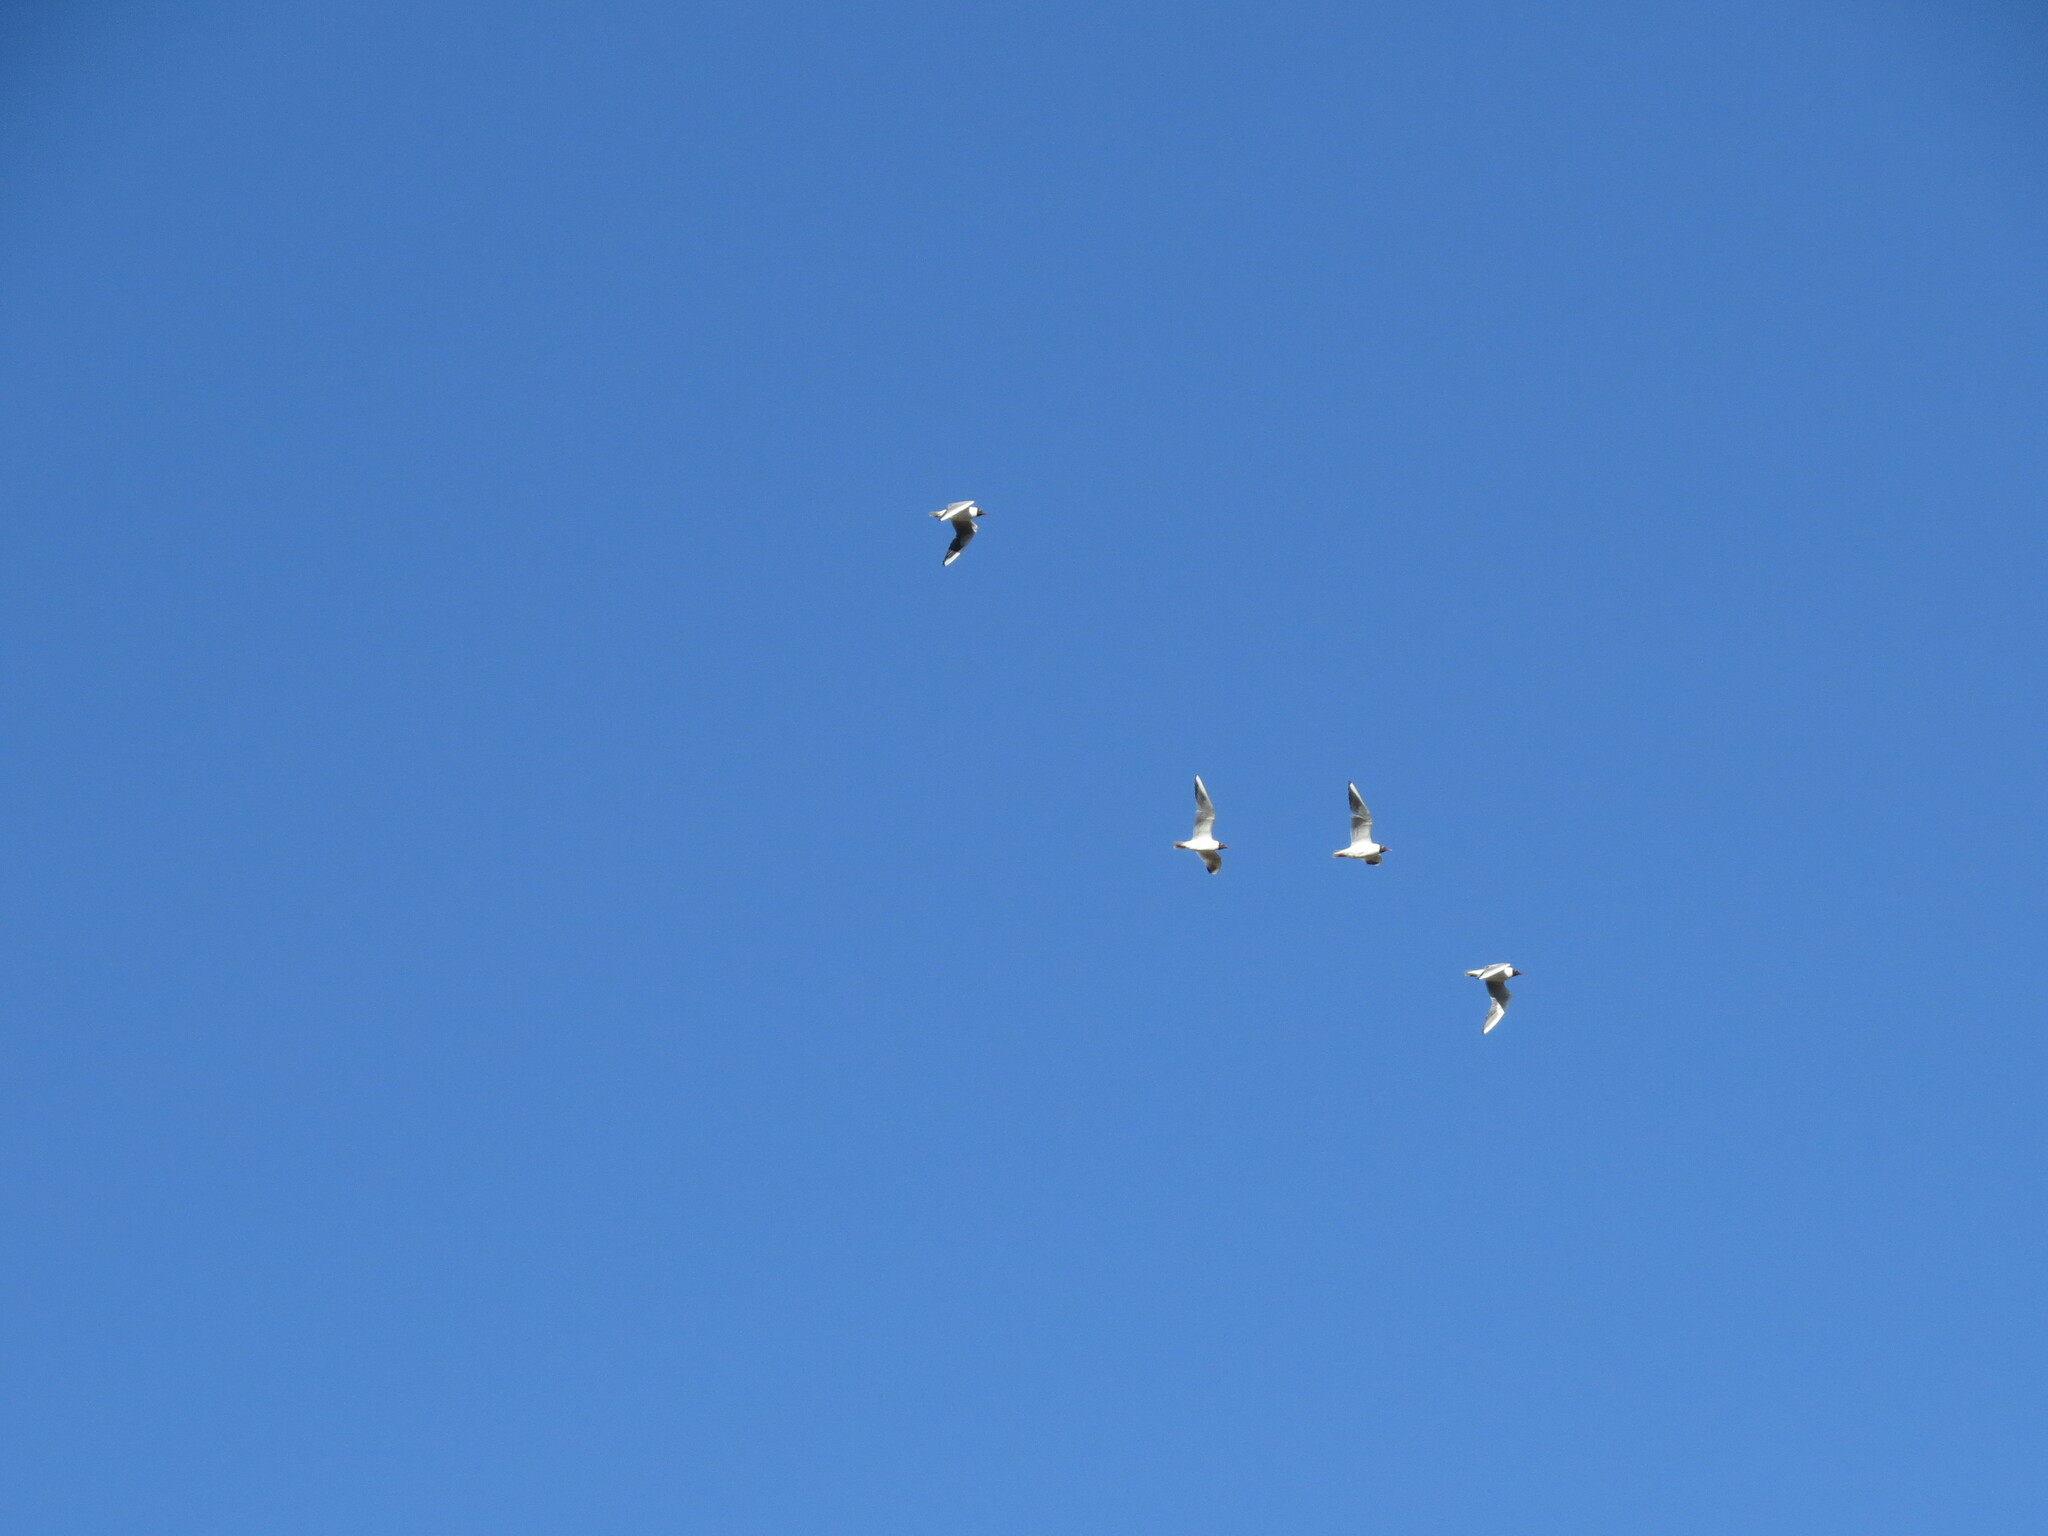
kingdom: Animalia
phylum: Chordata
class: Aves
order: Charadriiformes
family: Laridae
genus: Chroicocephalus
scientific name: Chroicocephalus ridibundus
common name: Black-headed gull
